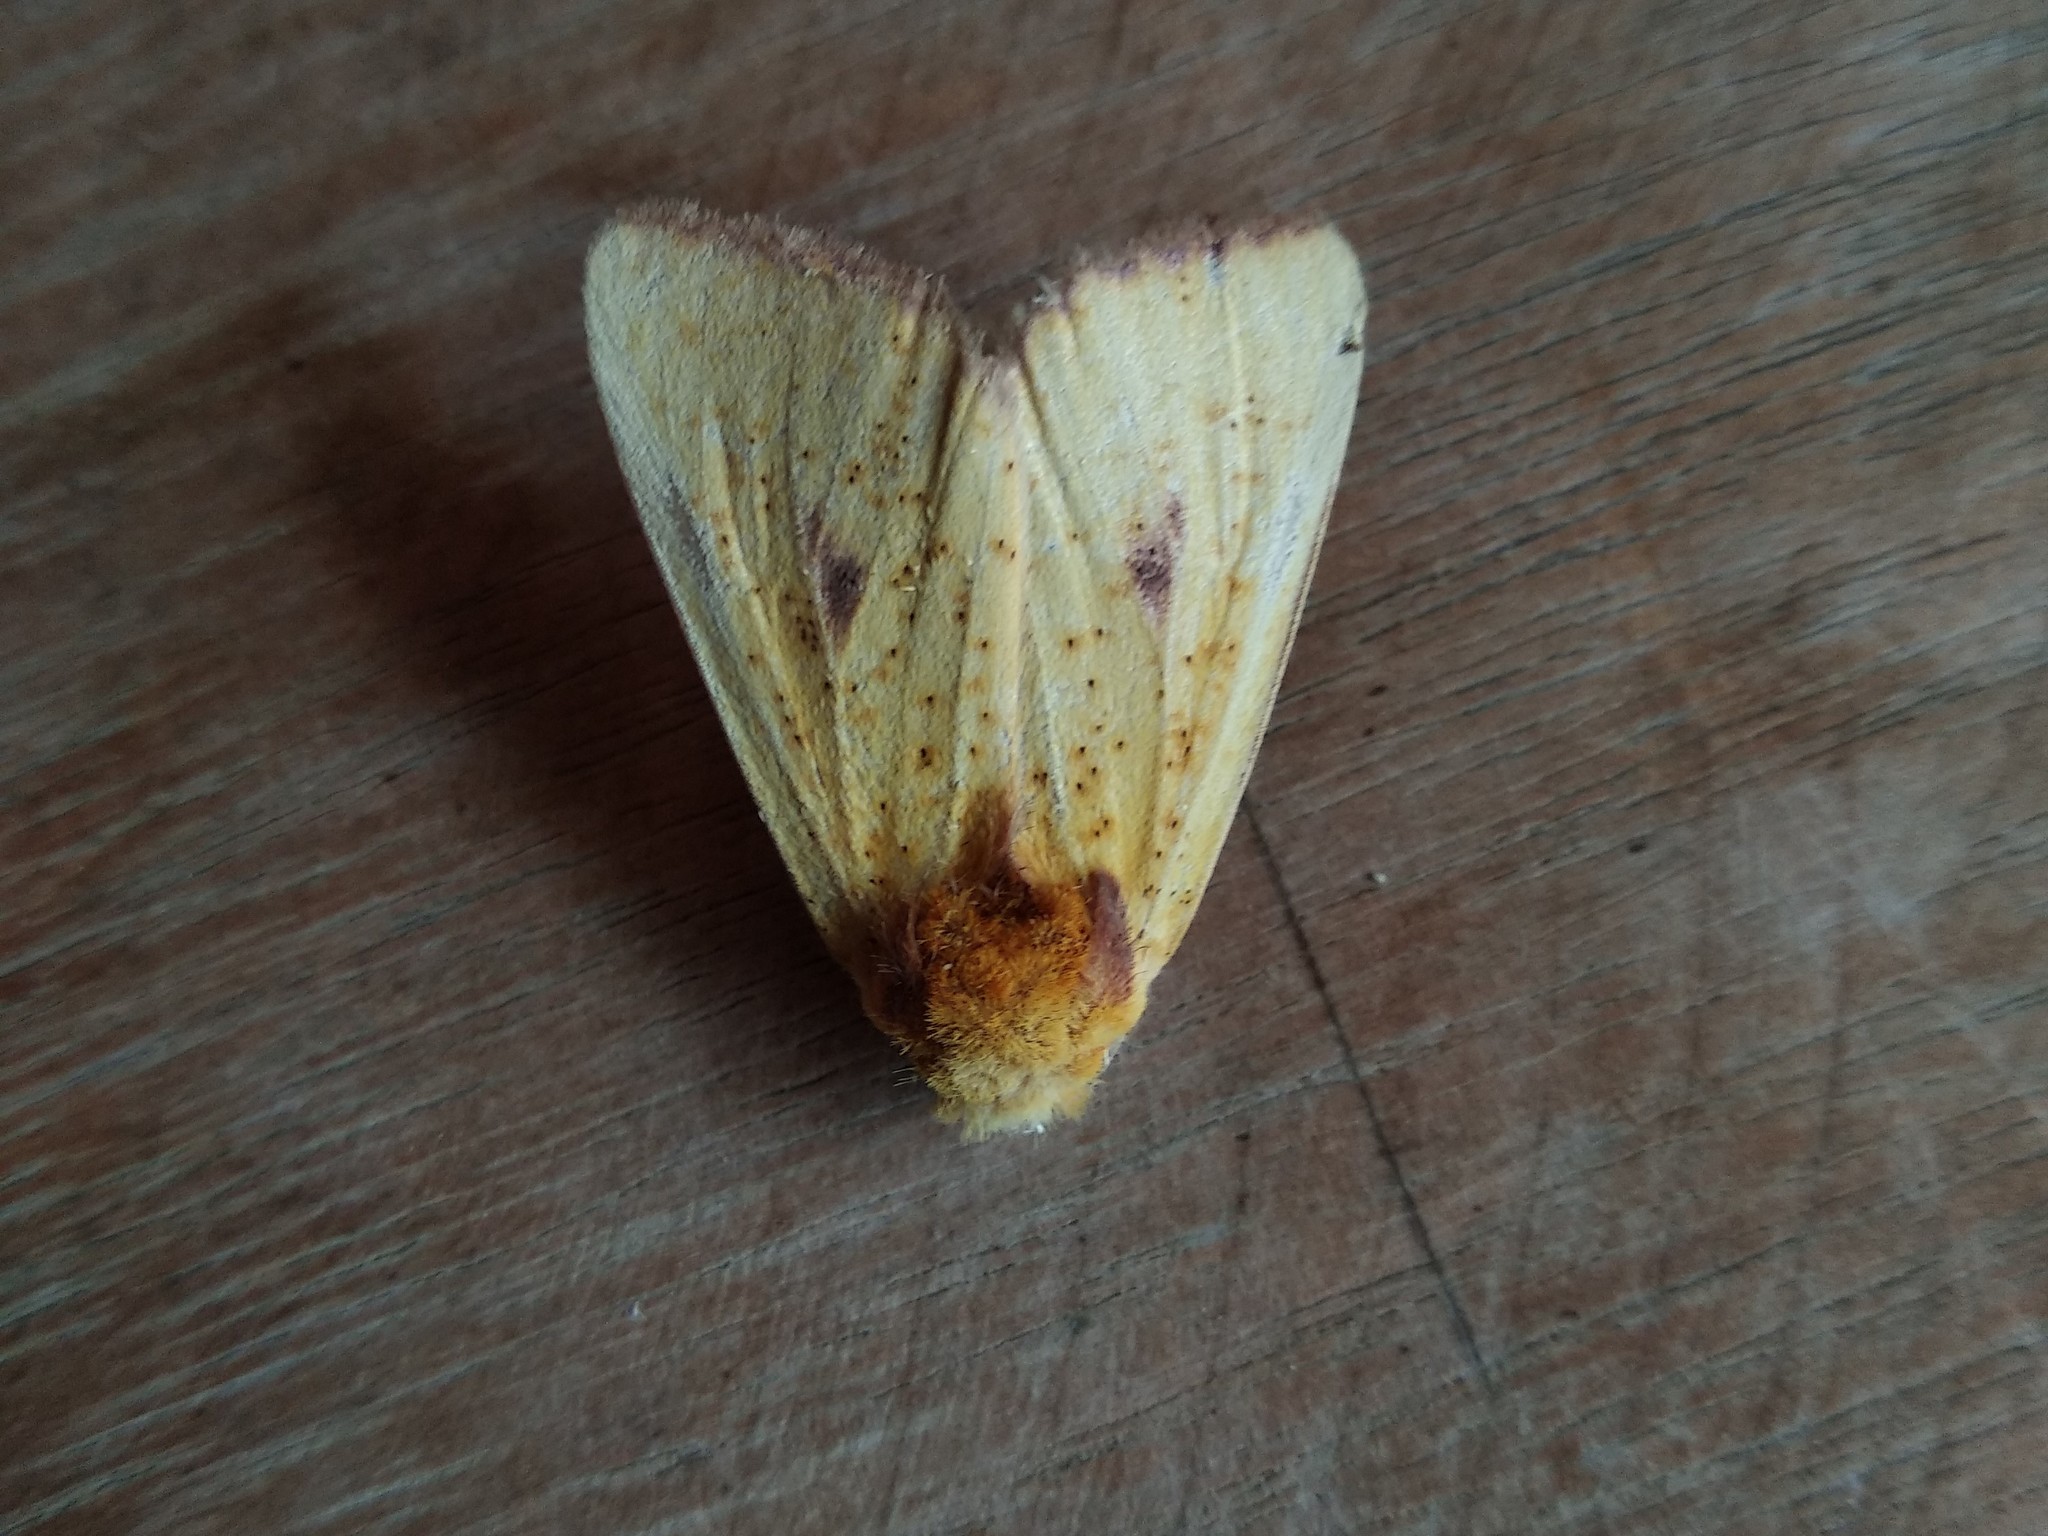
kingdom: Animalia
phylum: Arthropoda
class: Insecta
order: Lepidoptera
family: Notodontidae
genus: Antheua
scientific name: Antheua servula
